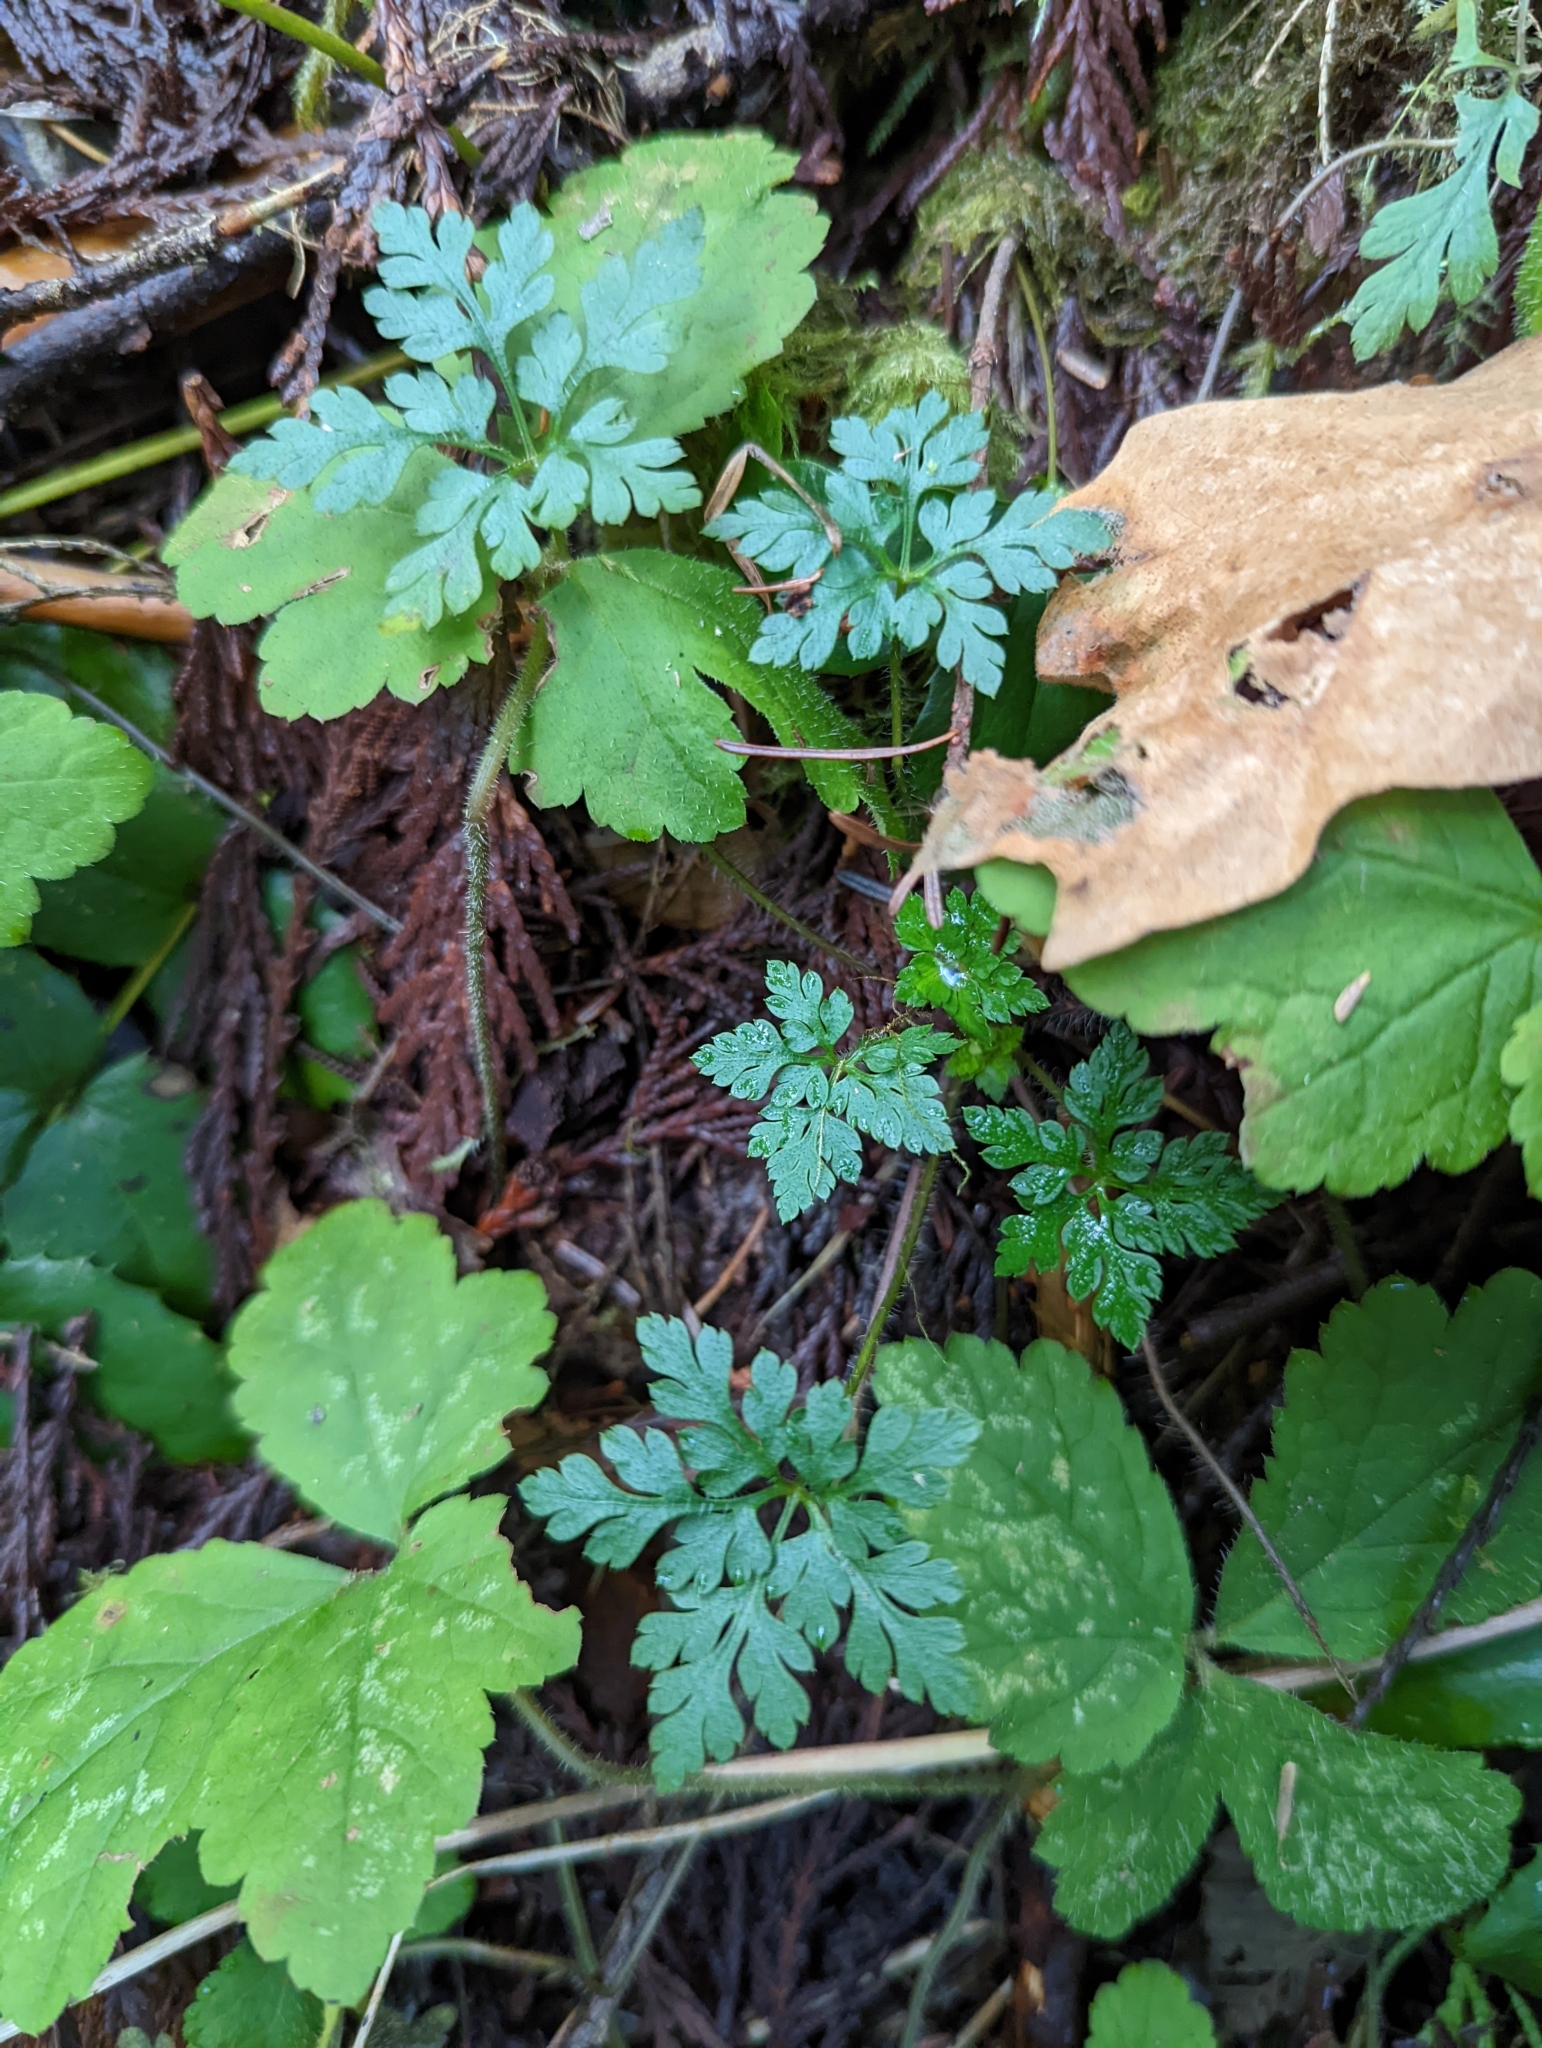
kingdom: Plantae
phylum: Tracheophyta
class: Magnoliopsida
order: Geraniales
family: Geraniaceae
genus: Geranium
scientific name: Geranium robertianum
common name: Herb-robert
